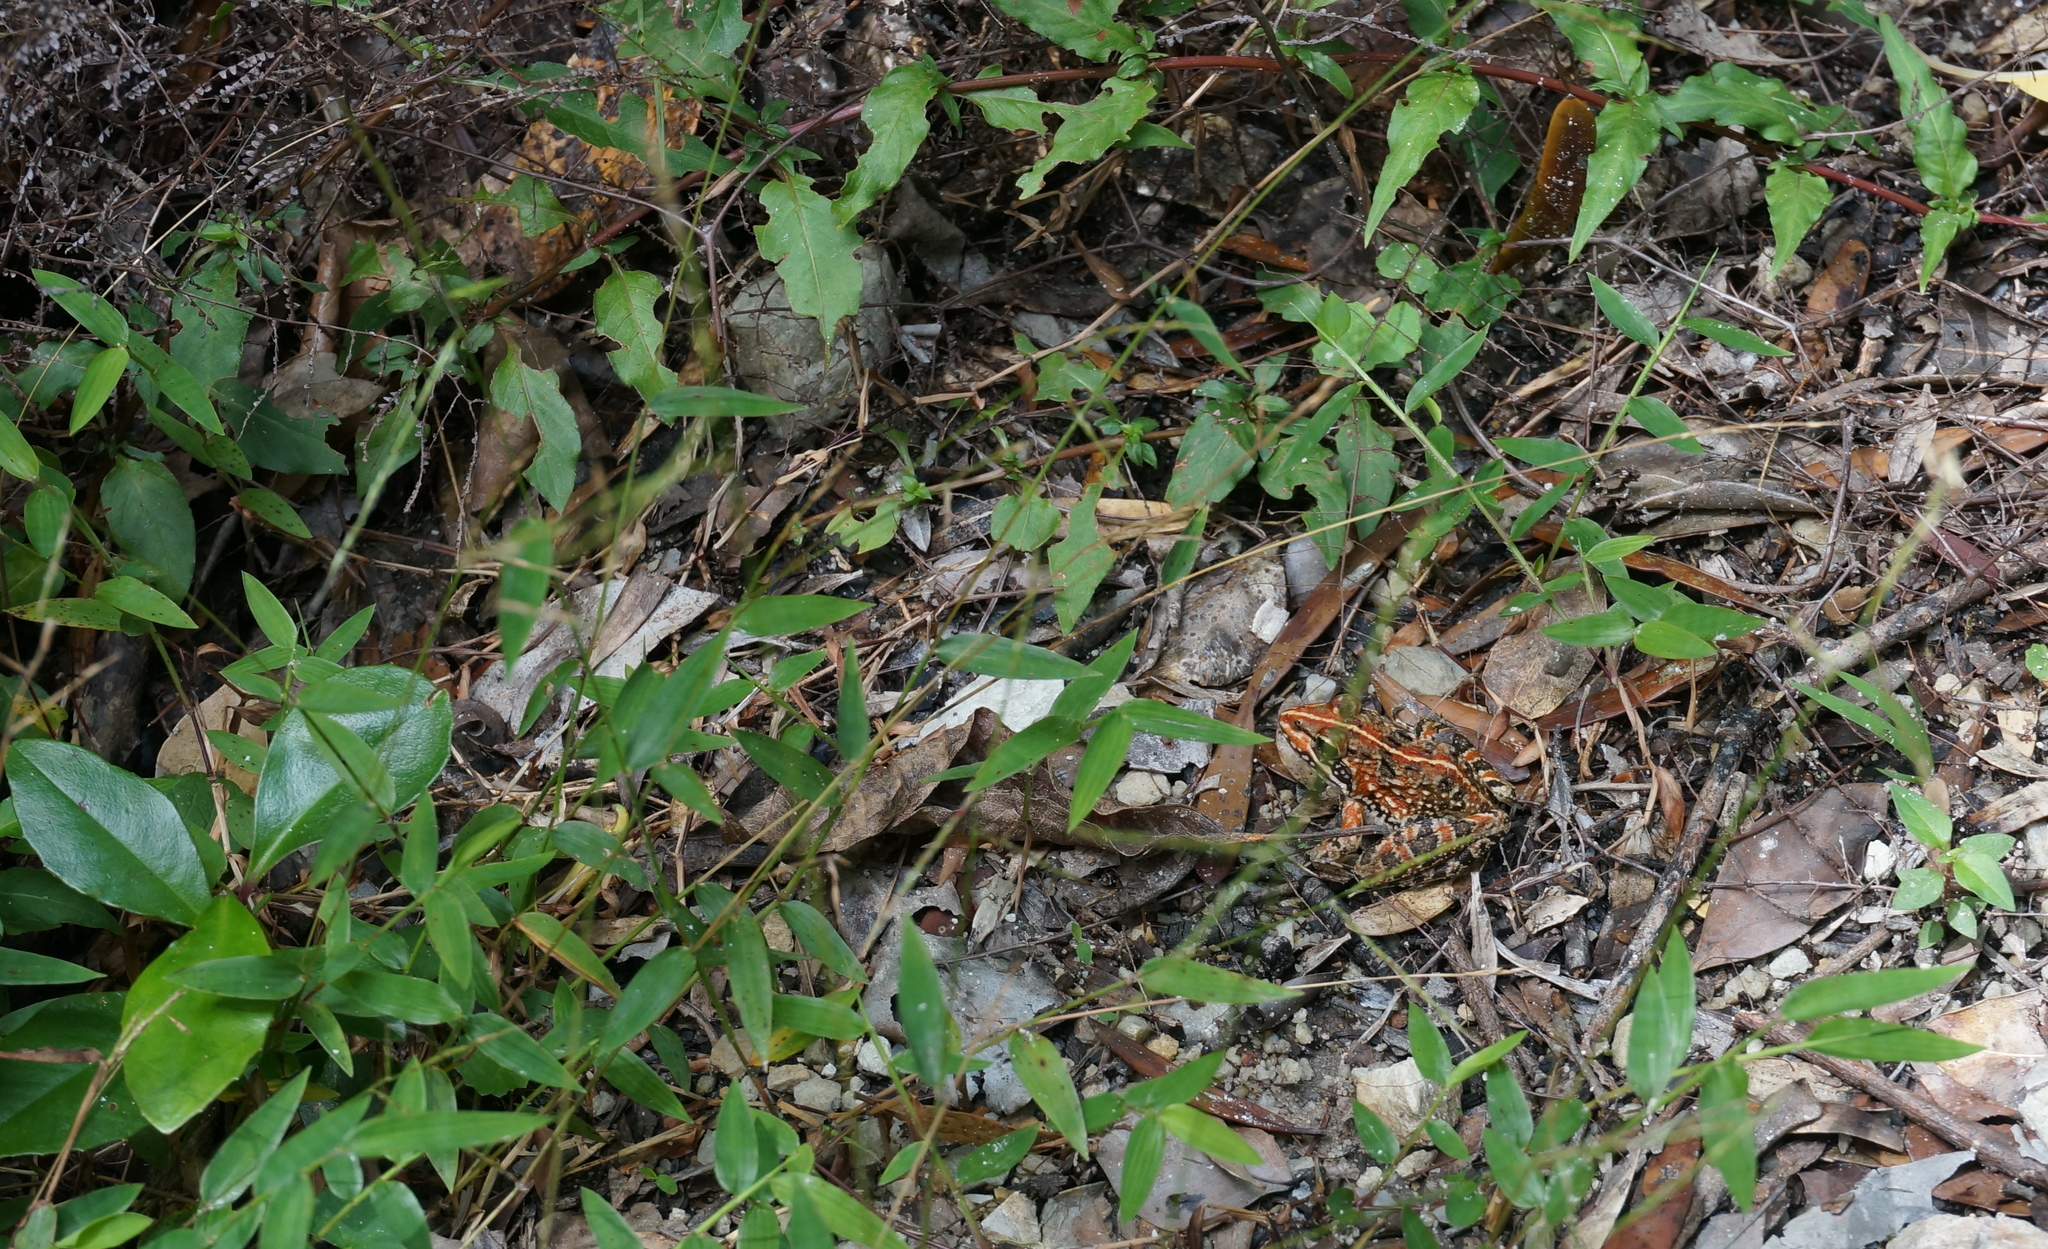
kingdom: Animalia
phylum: Chordata
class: Amphibia
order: Anura
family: Pyxicephalidae
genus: Amietia
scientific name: Amietia fuscigula
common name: Cape rana
